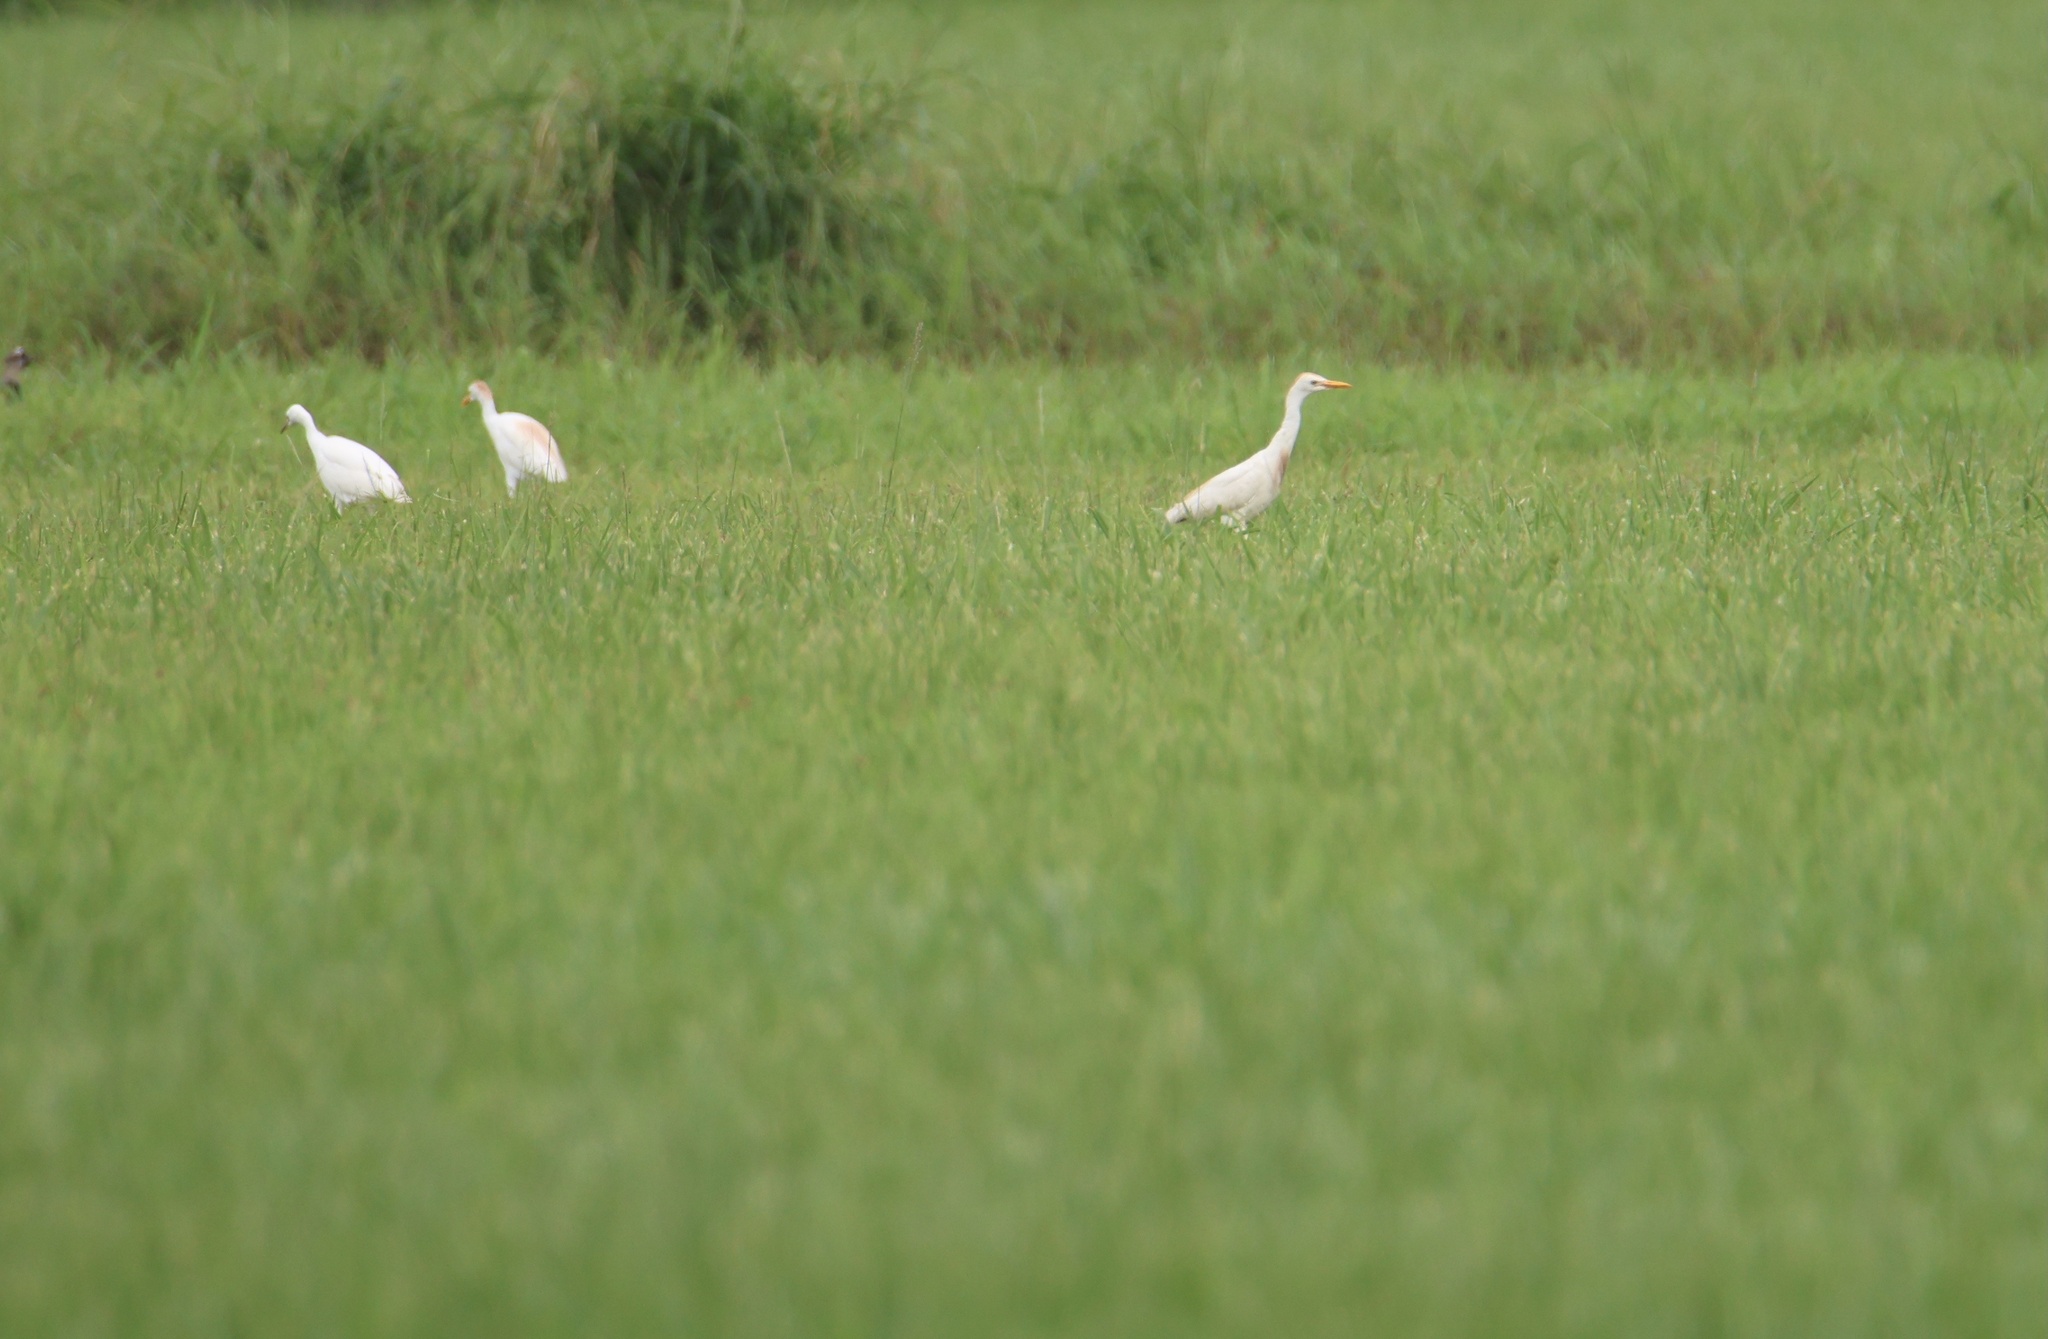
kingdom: Animalia
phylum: Chordata
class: Aves
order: Pelecaniformes
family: Ardeidae
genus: Bubulcus
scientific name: Bubulcus ibis
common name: Cattle egret
